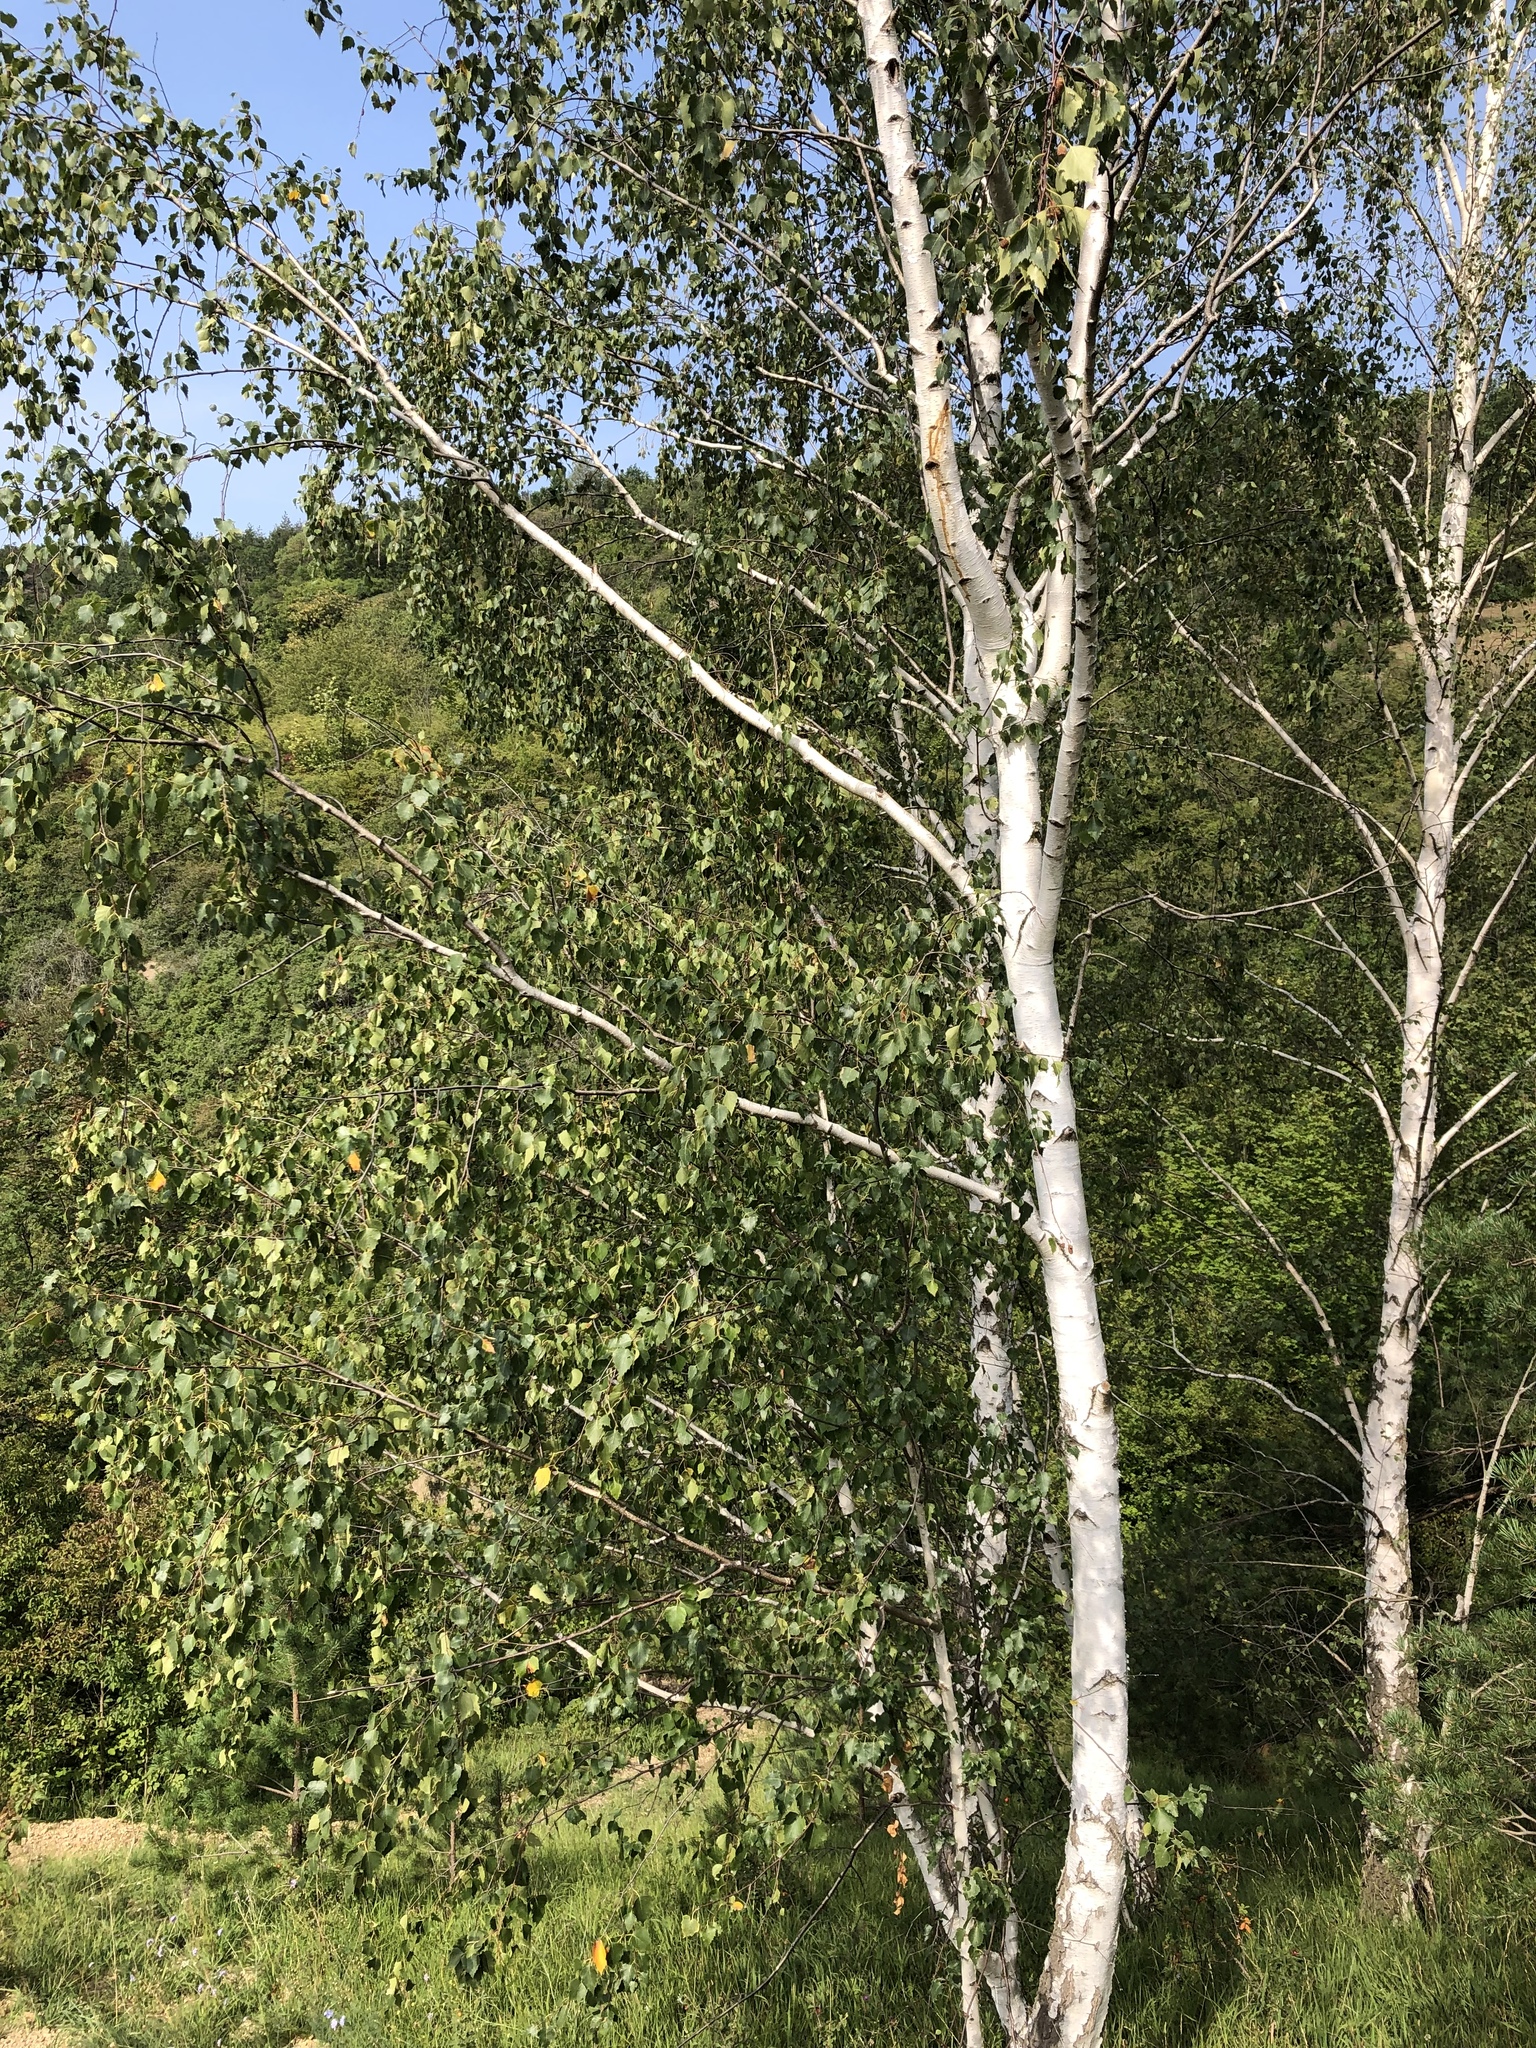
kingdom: Plantae
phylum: Tracheophyta
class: Magnoliopsida
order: Fagales
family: Betulaceae
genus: Betula
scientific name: Betula pendula
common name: Silver birch
